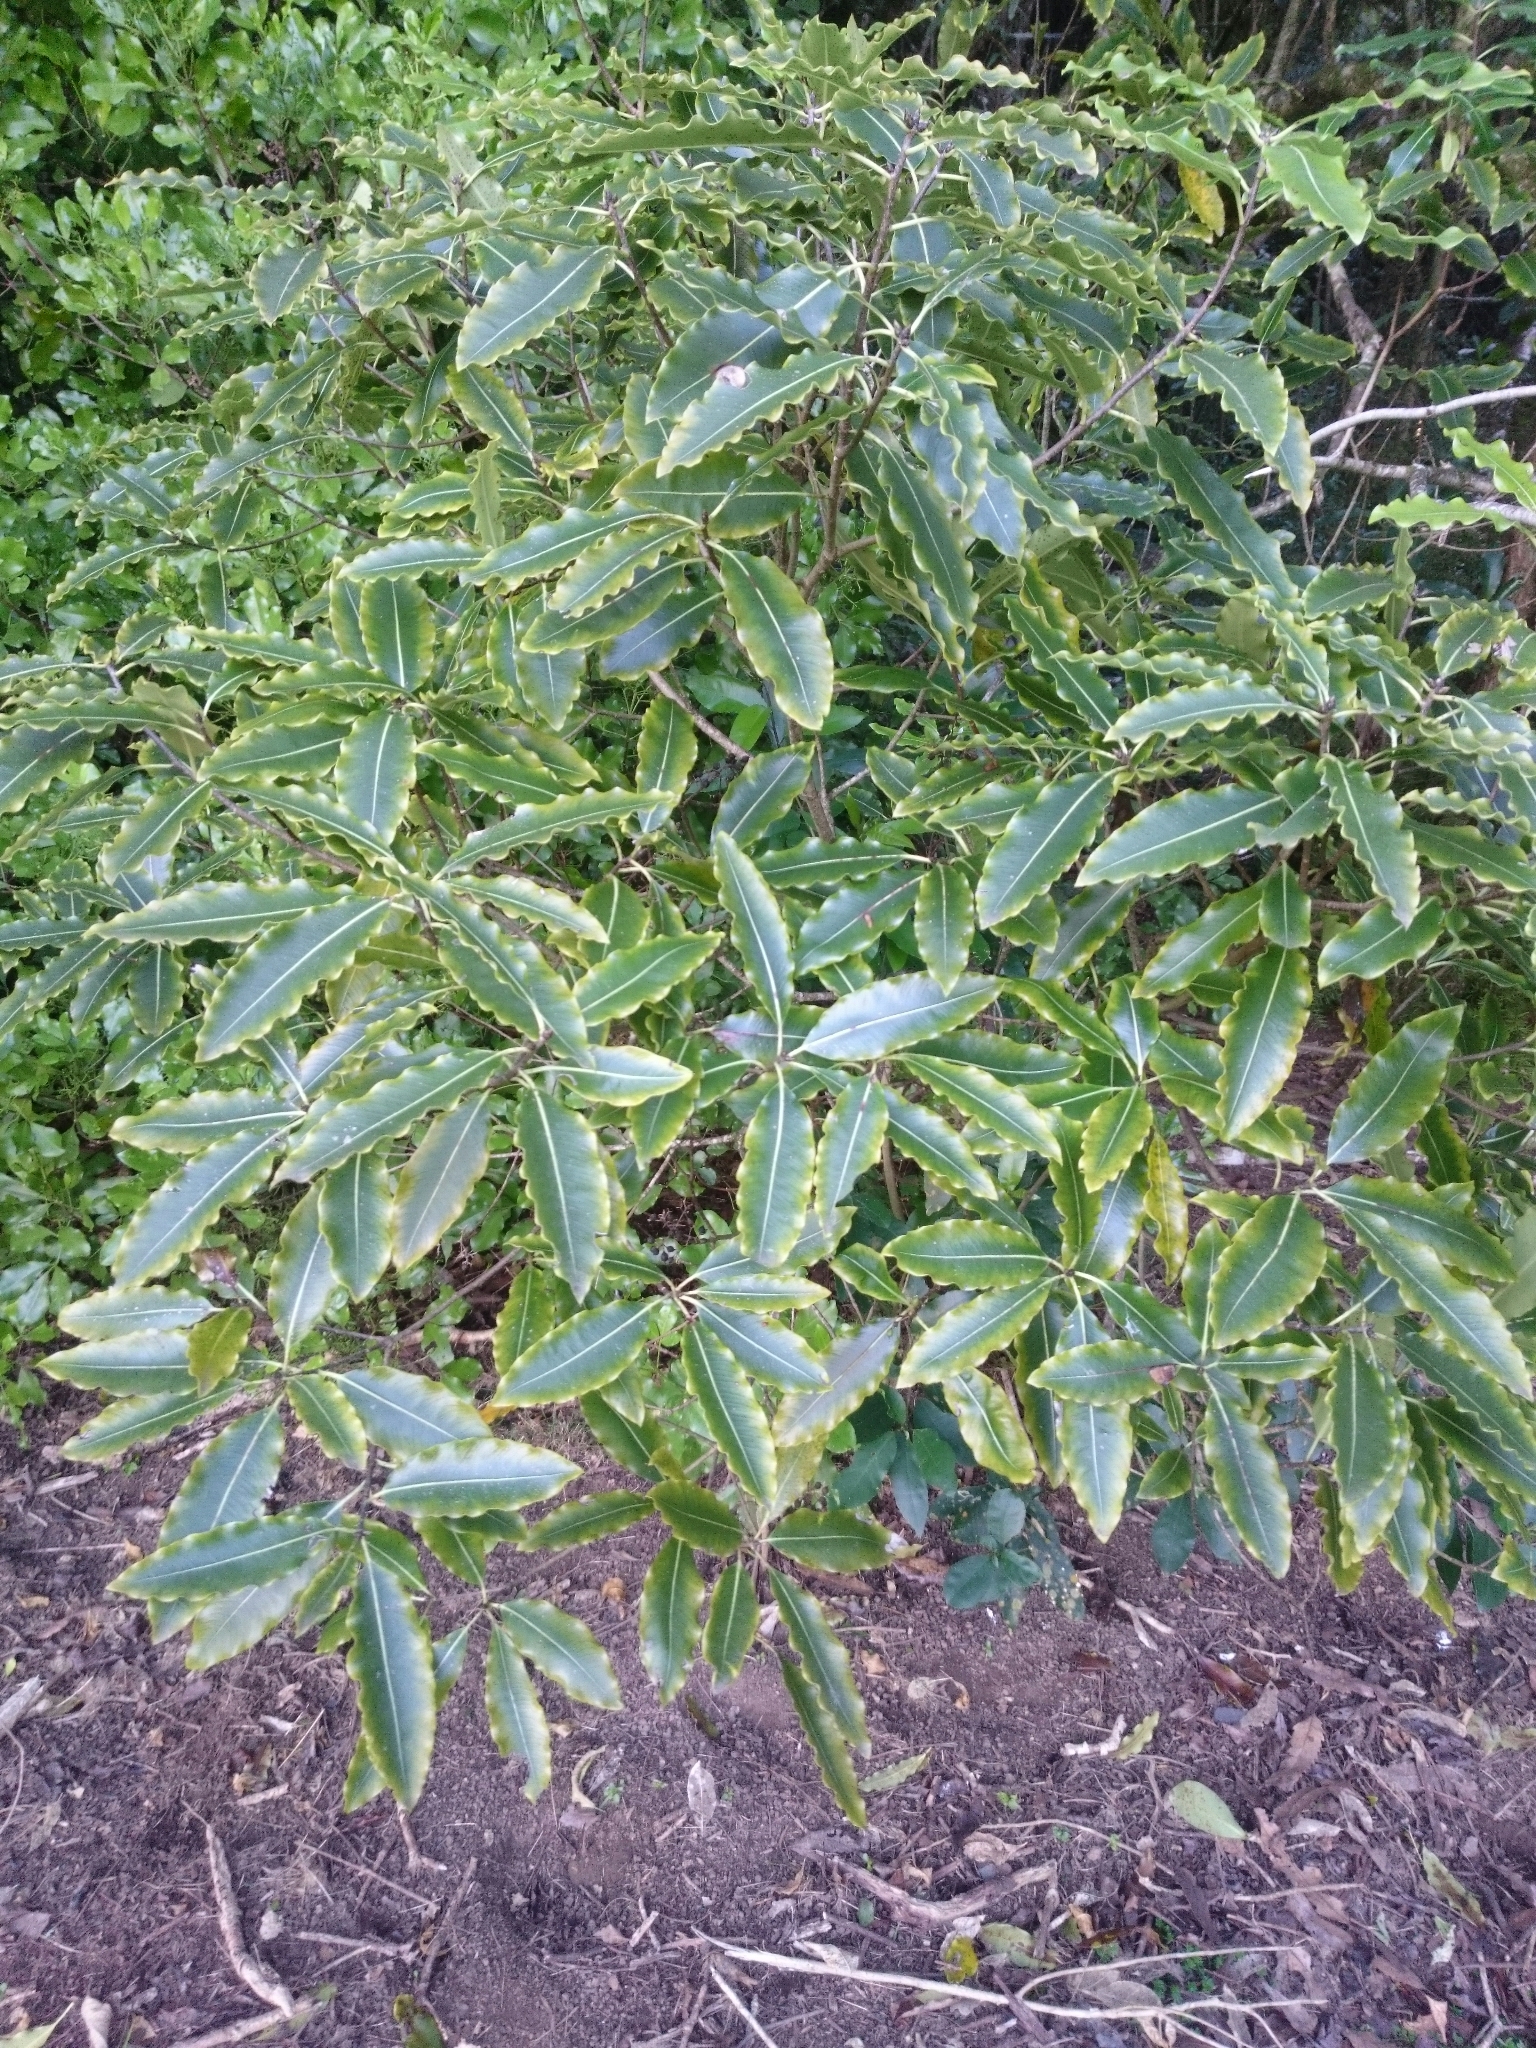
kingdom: Plantae
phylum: Tracheophyta
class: Magnoliopsida
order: Apiales
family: Pittosporaceae
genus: Pittosporum
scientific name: Pittosporum eugenioides
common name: Lemonwood
